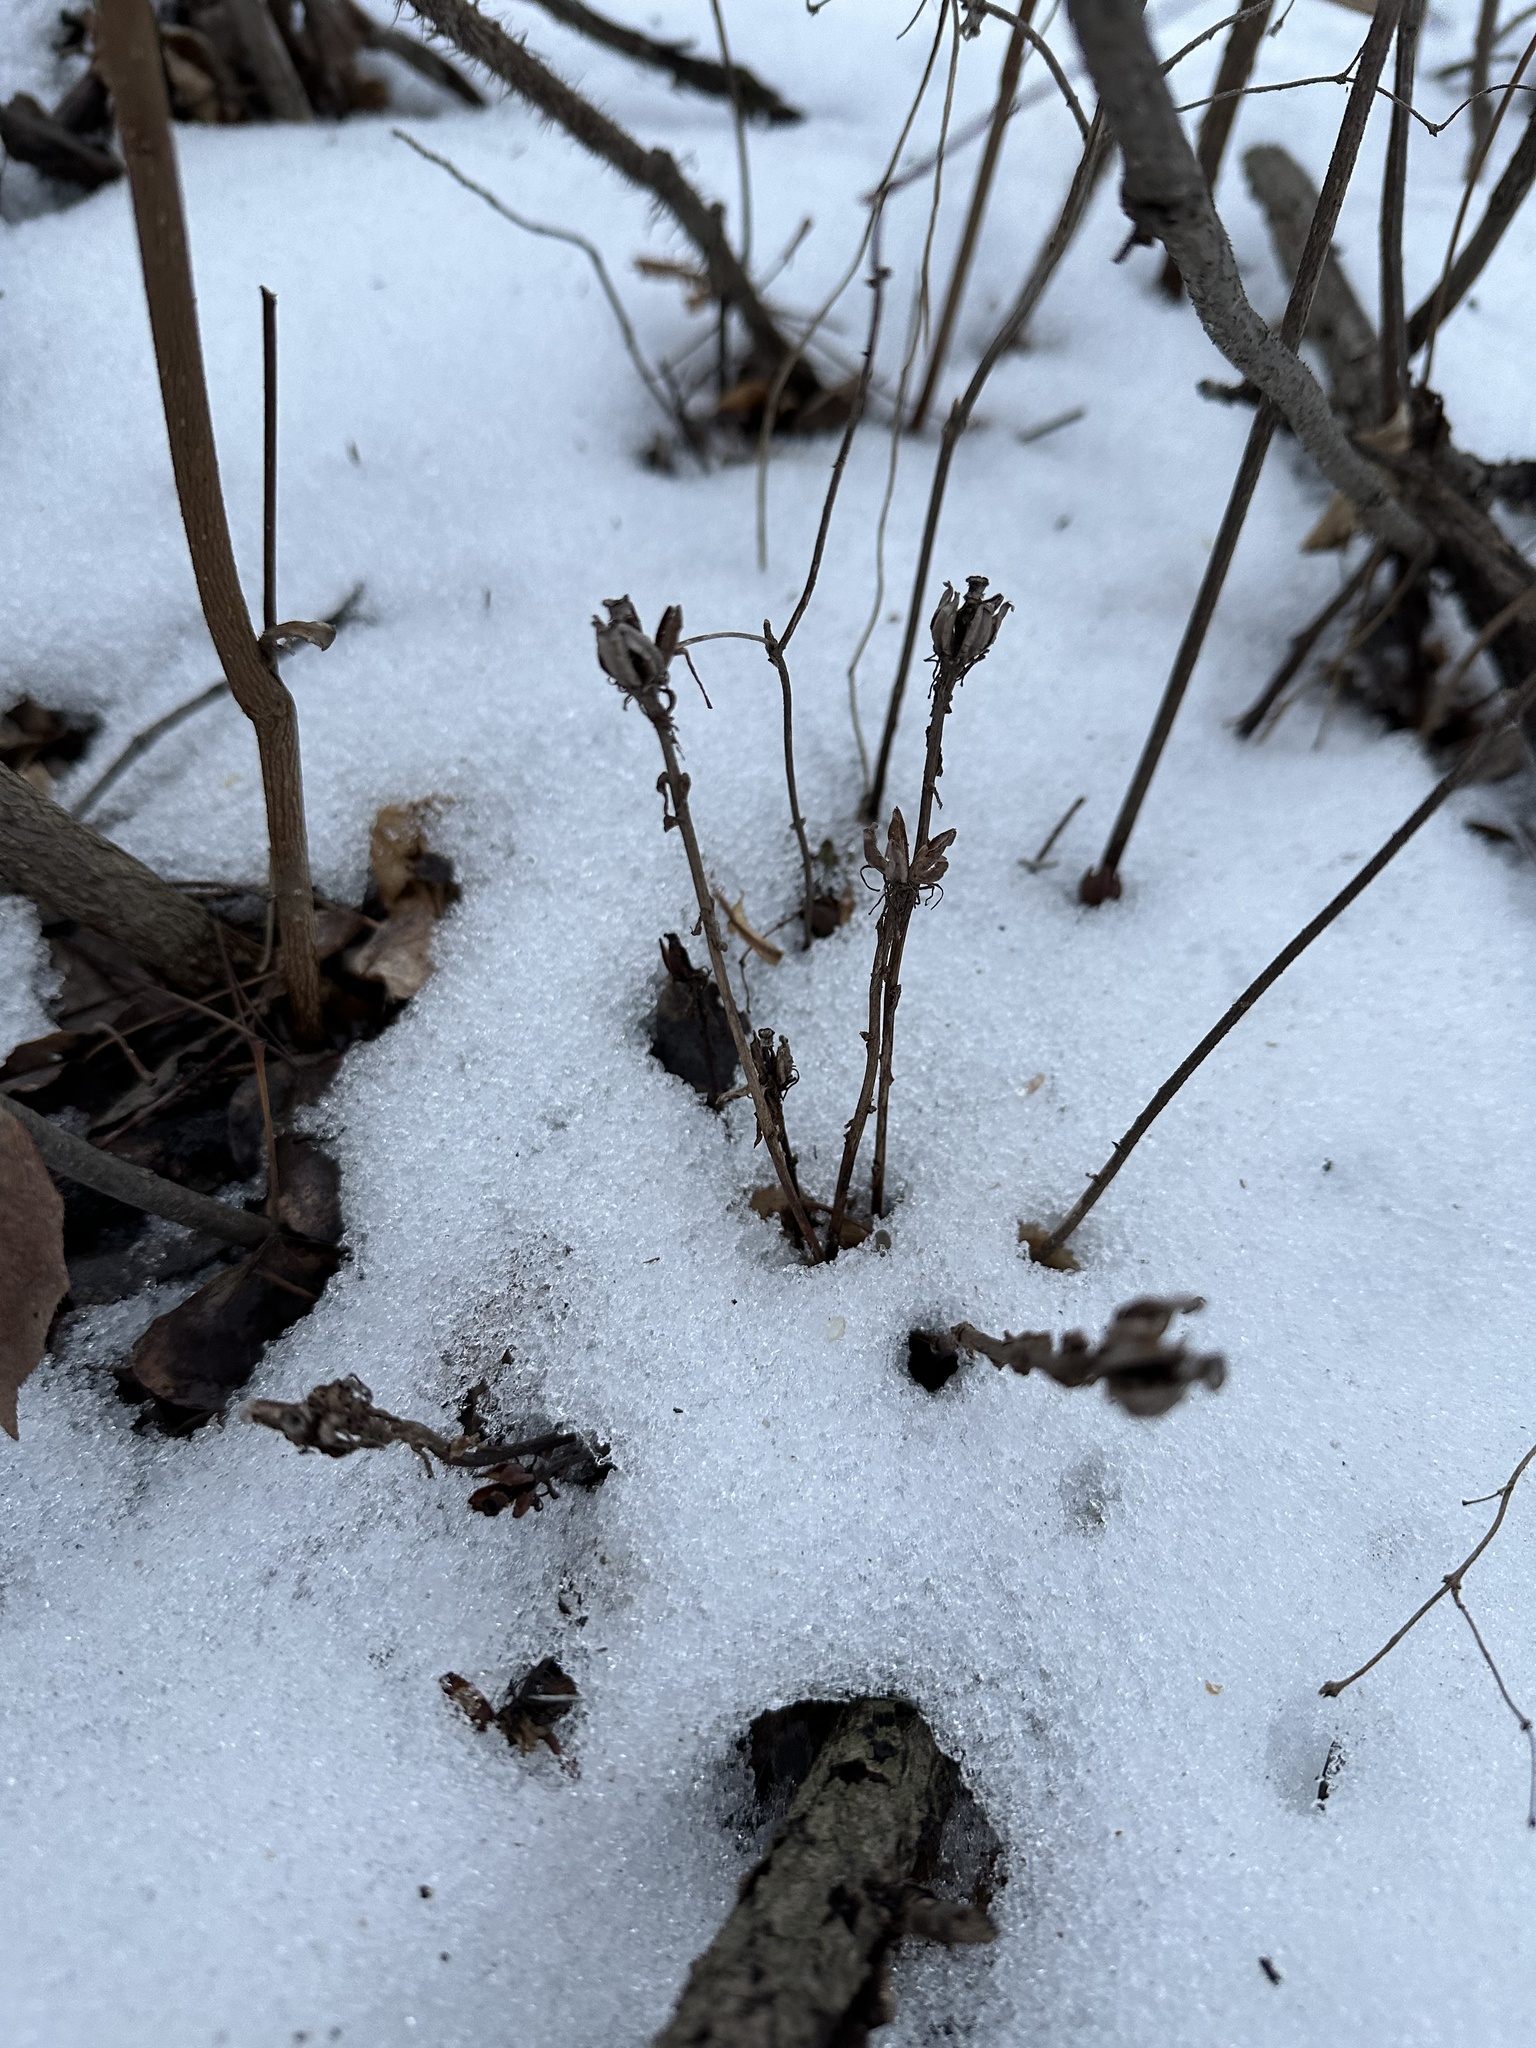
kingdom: Plantae
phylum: Tracheophyta
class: Magnoliopsida
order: Ericales
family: Ericaceae
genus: Monotropa
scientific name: Monotropa uniflora
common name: Convulsion root
